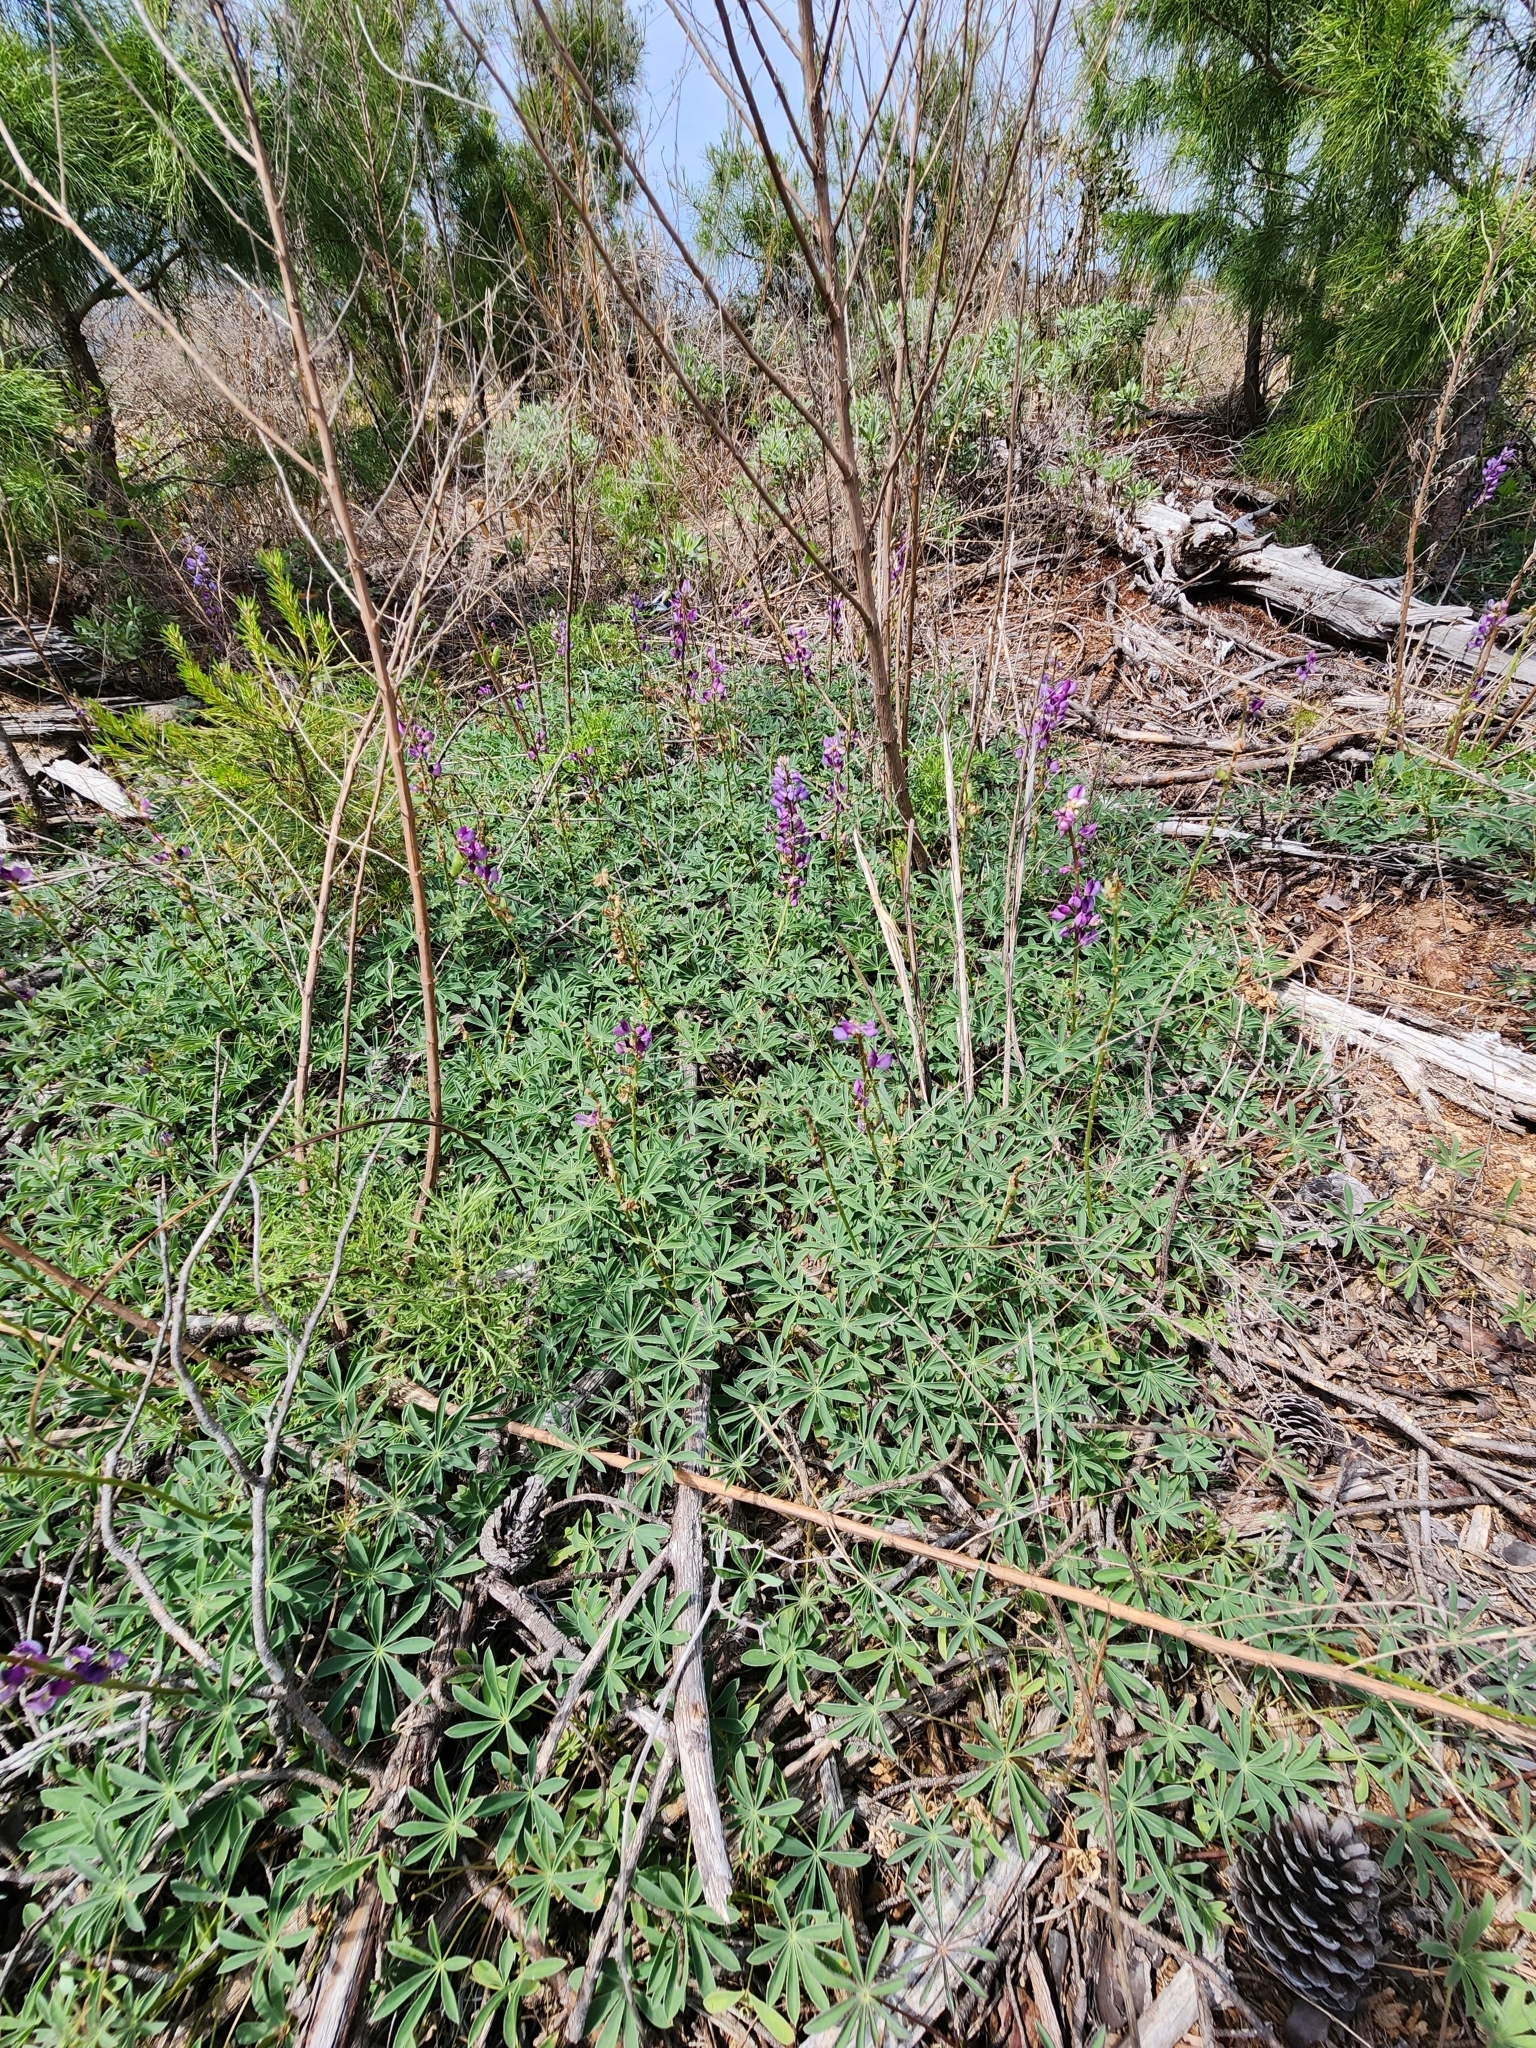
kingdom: Plantae
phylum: Tracheophyta
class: Magnoliopsida
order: Fabales
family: Fabaceae
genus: Lupinus
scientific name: Lupinus perennis
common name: Sundial lupine
